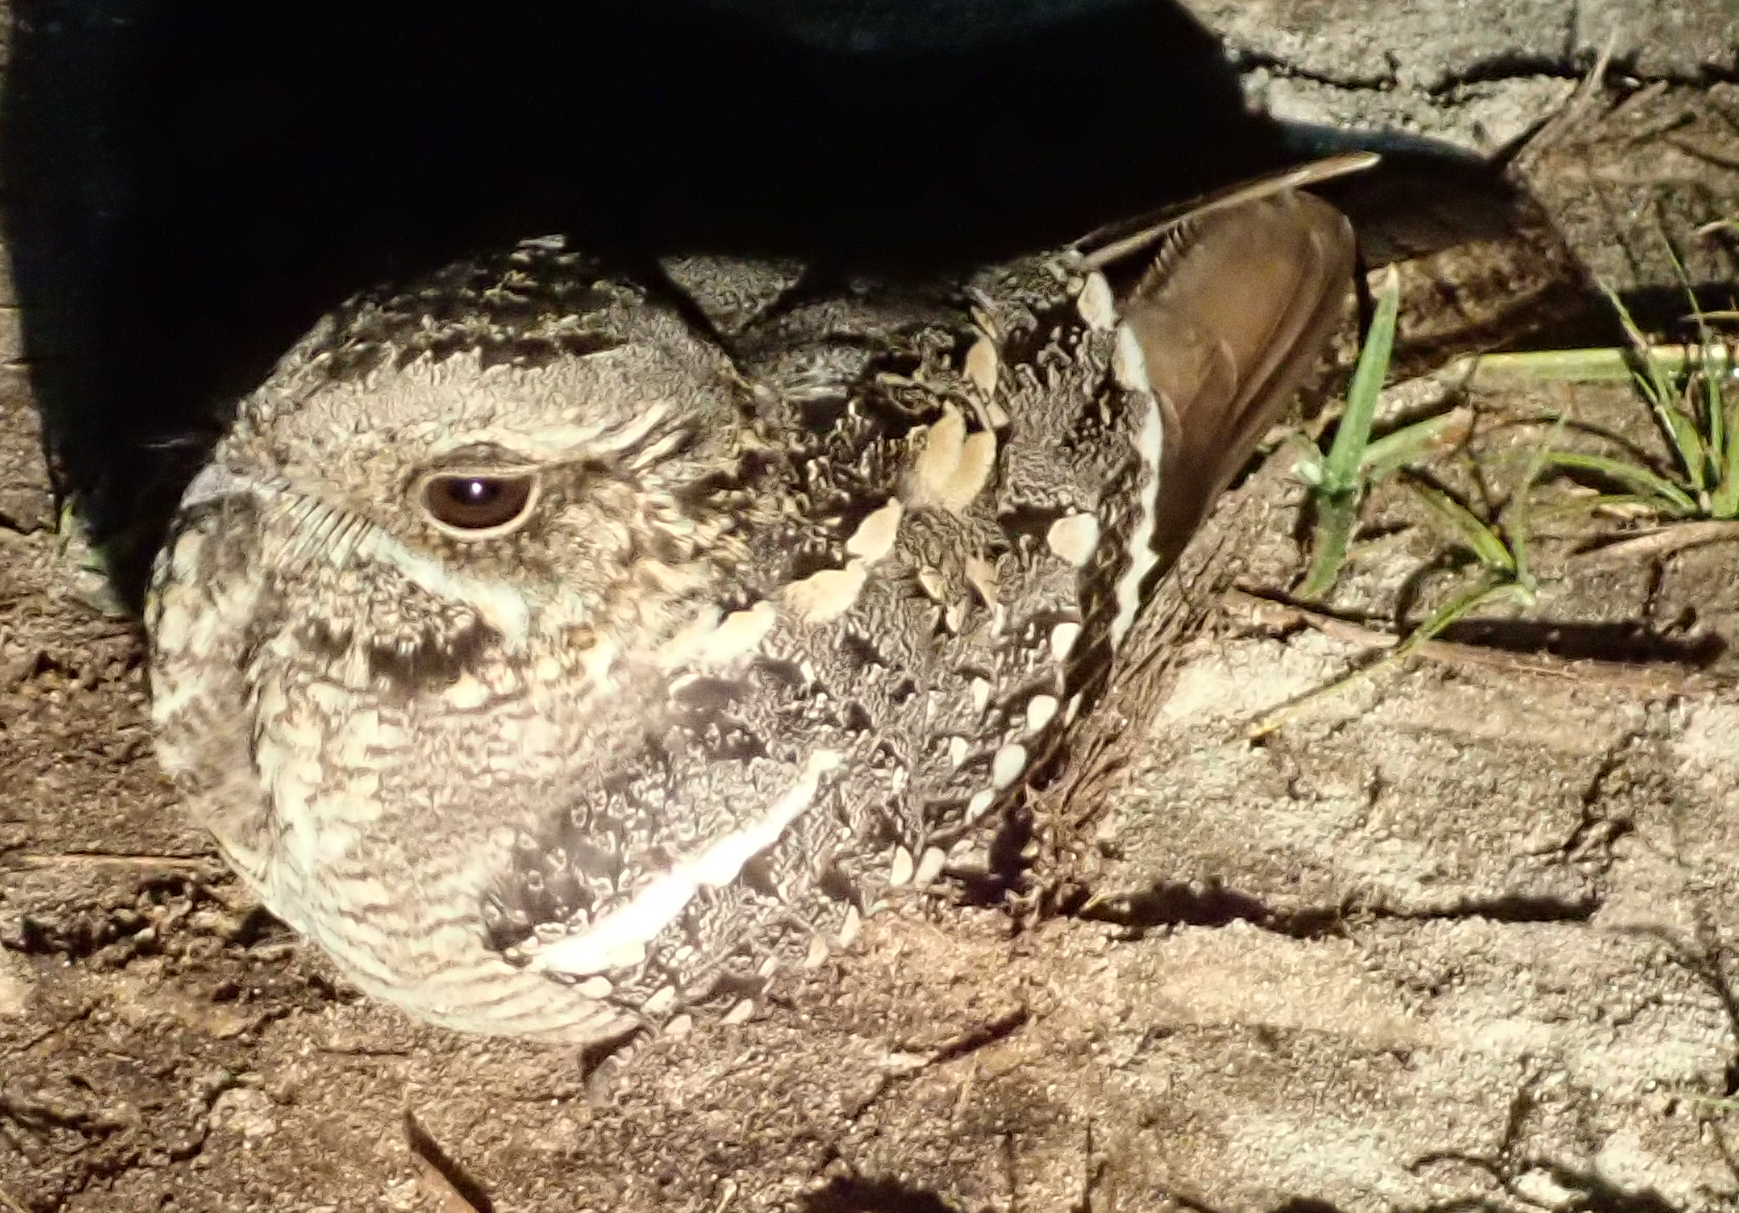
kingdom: Animalia
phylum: Chordata
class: Aves
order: Caprimulgiformes
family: Caprimulgidae
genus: Caprimulgus
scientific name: Caprimulgus fossii
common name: Square-tailed nightjar
